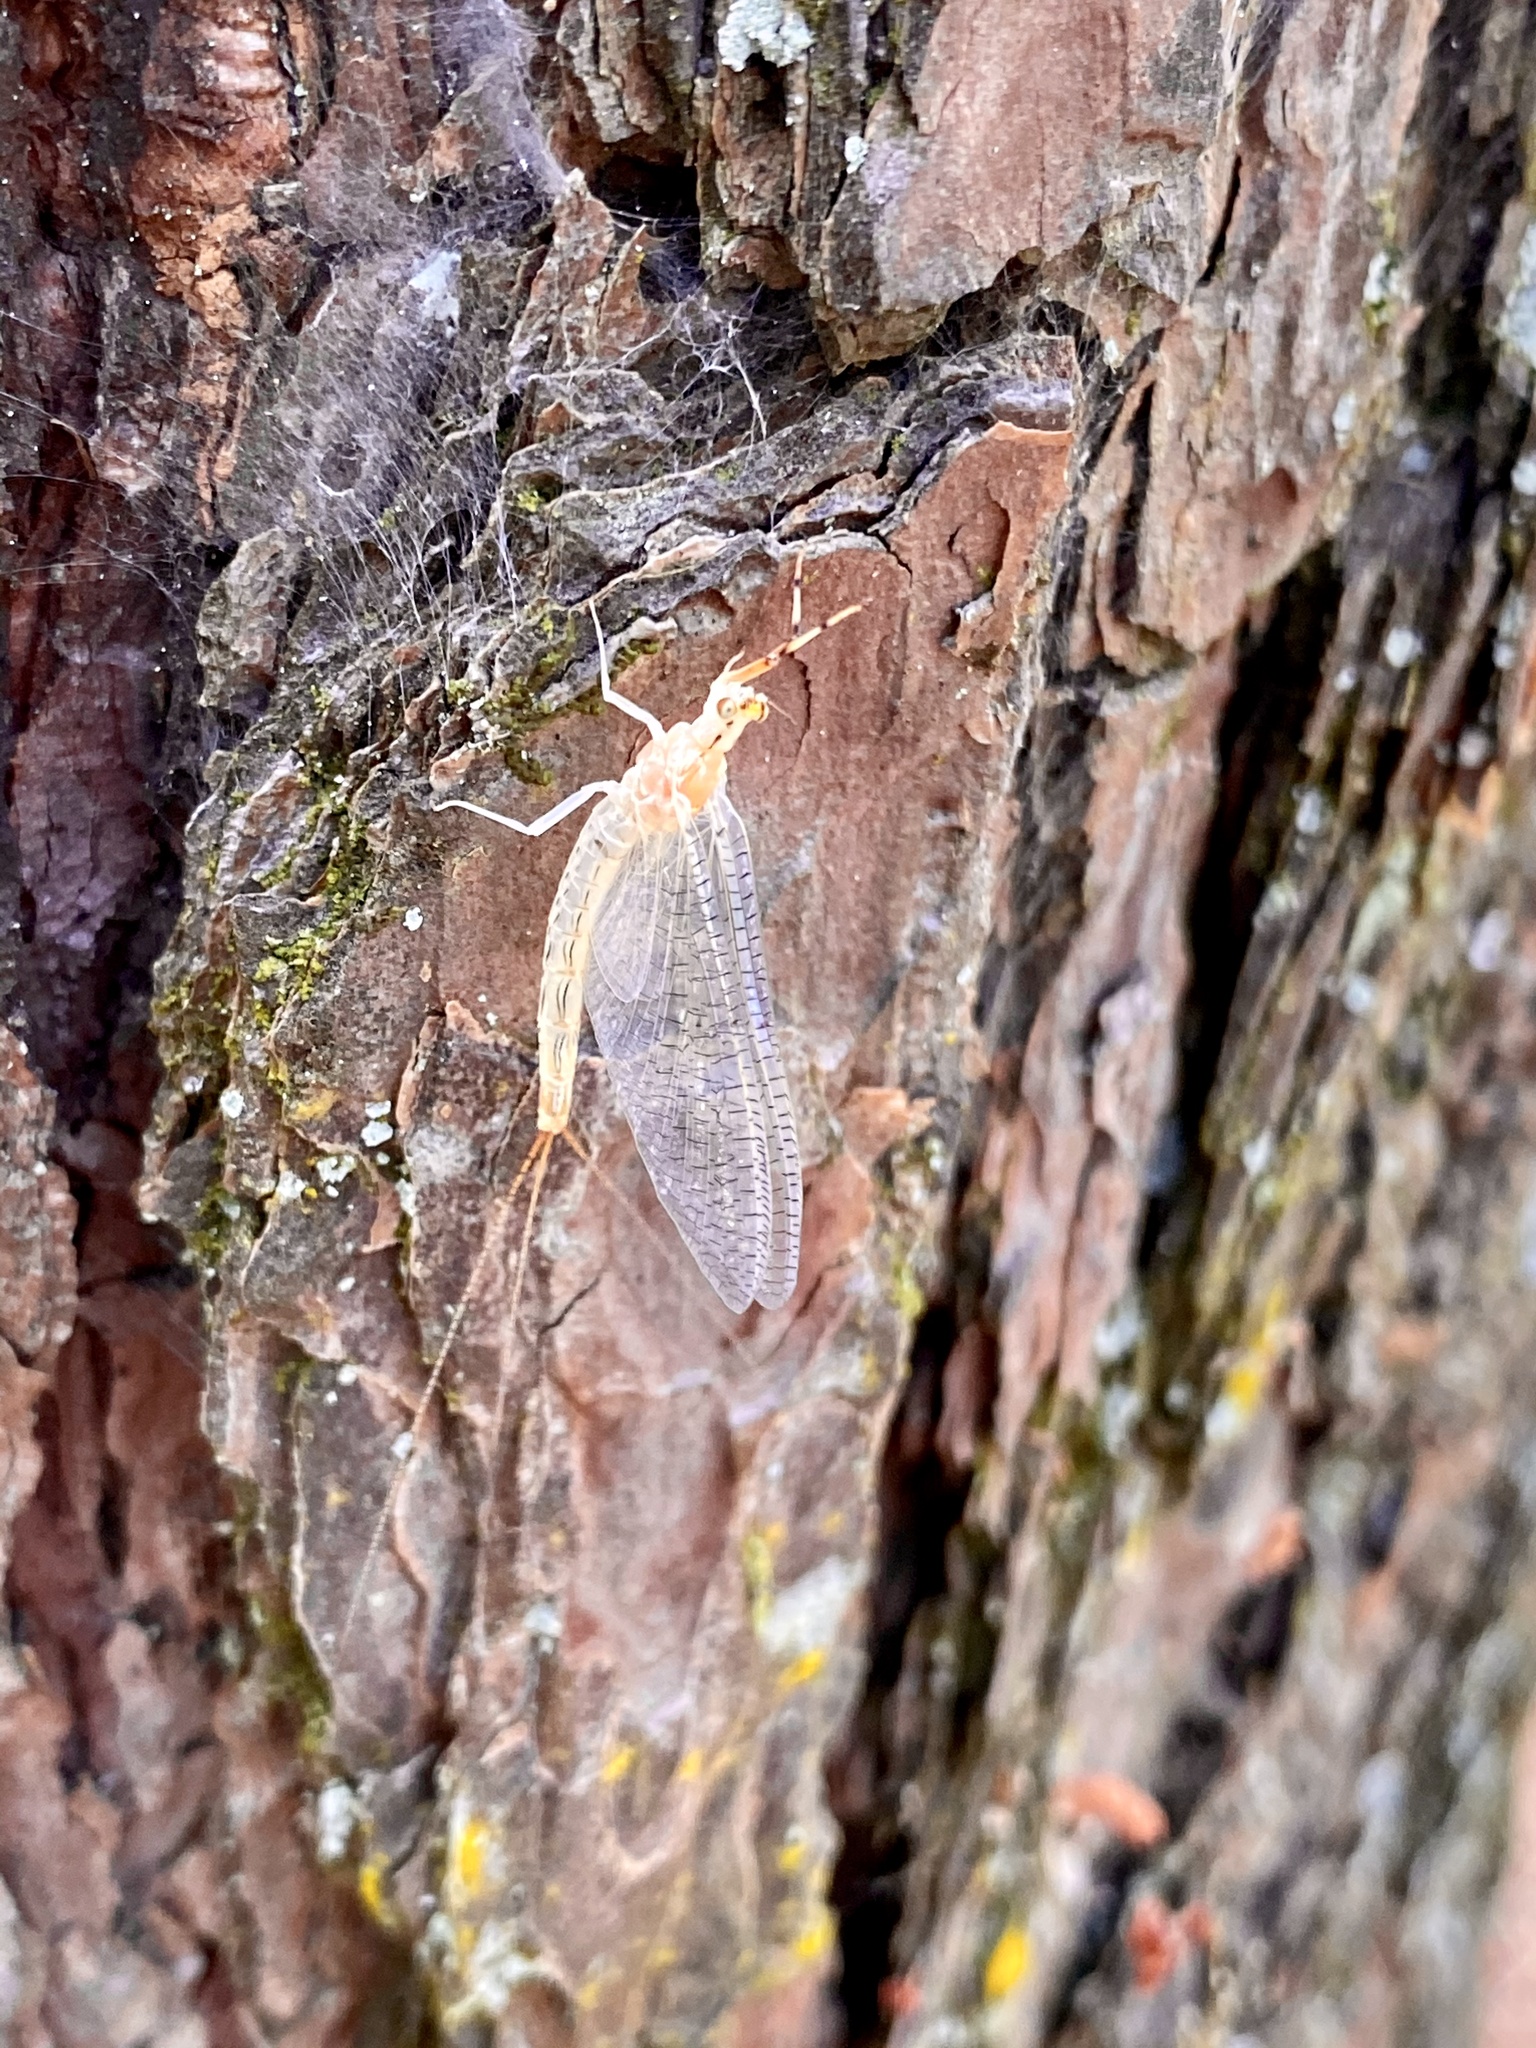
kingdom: Animalia
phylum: Arthropoda
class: Insecta
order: Ephemeroptera
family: Ephemeridae
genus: Ephemera
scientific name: Ephemera orientalis
